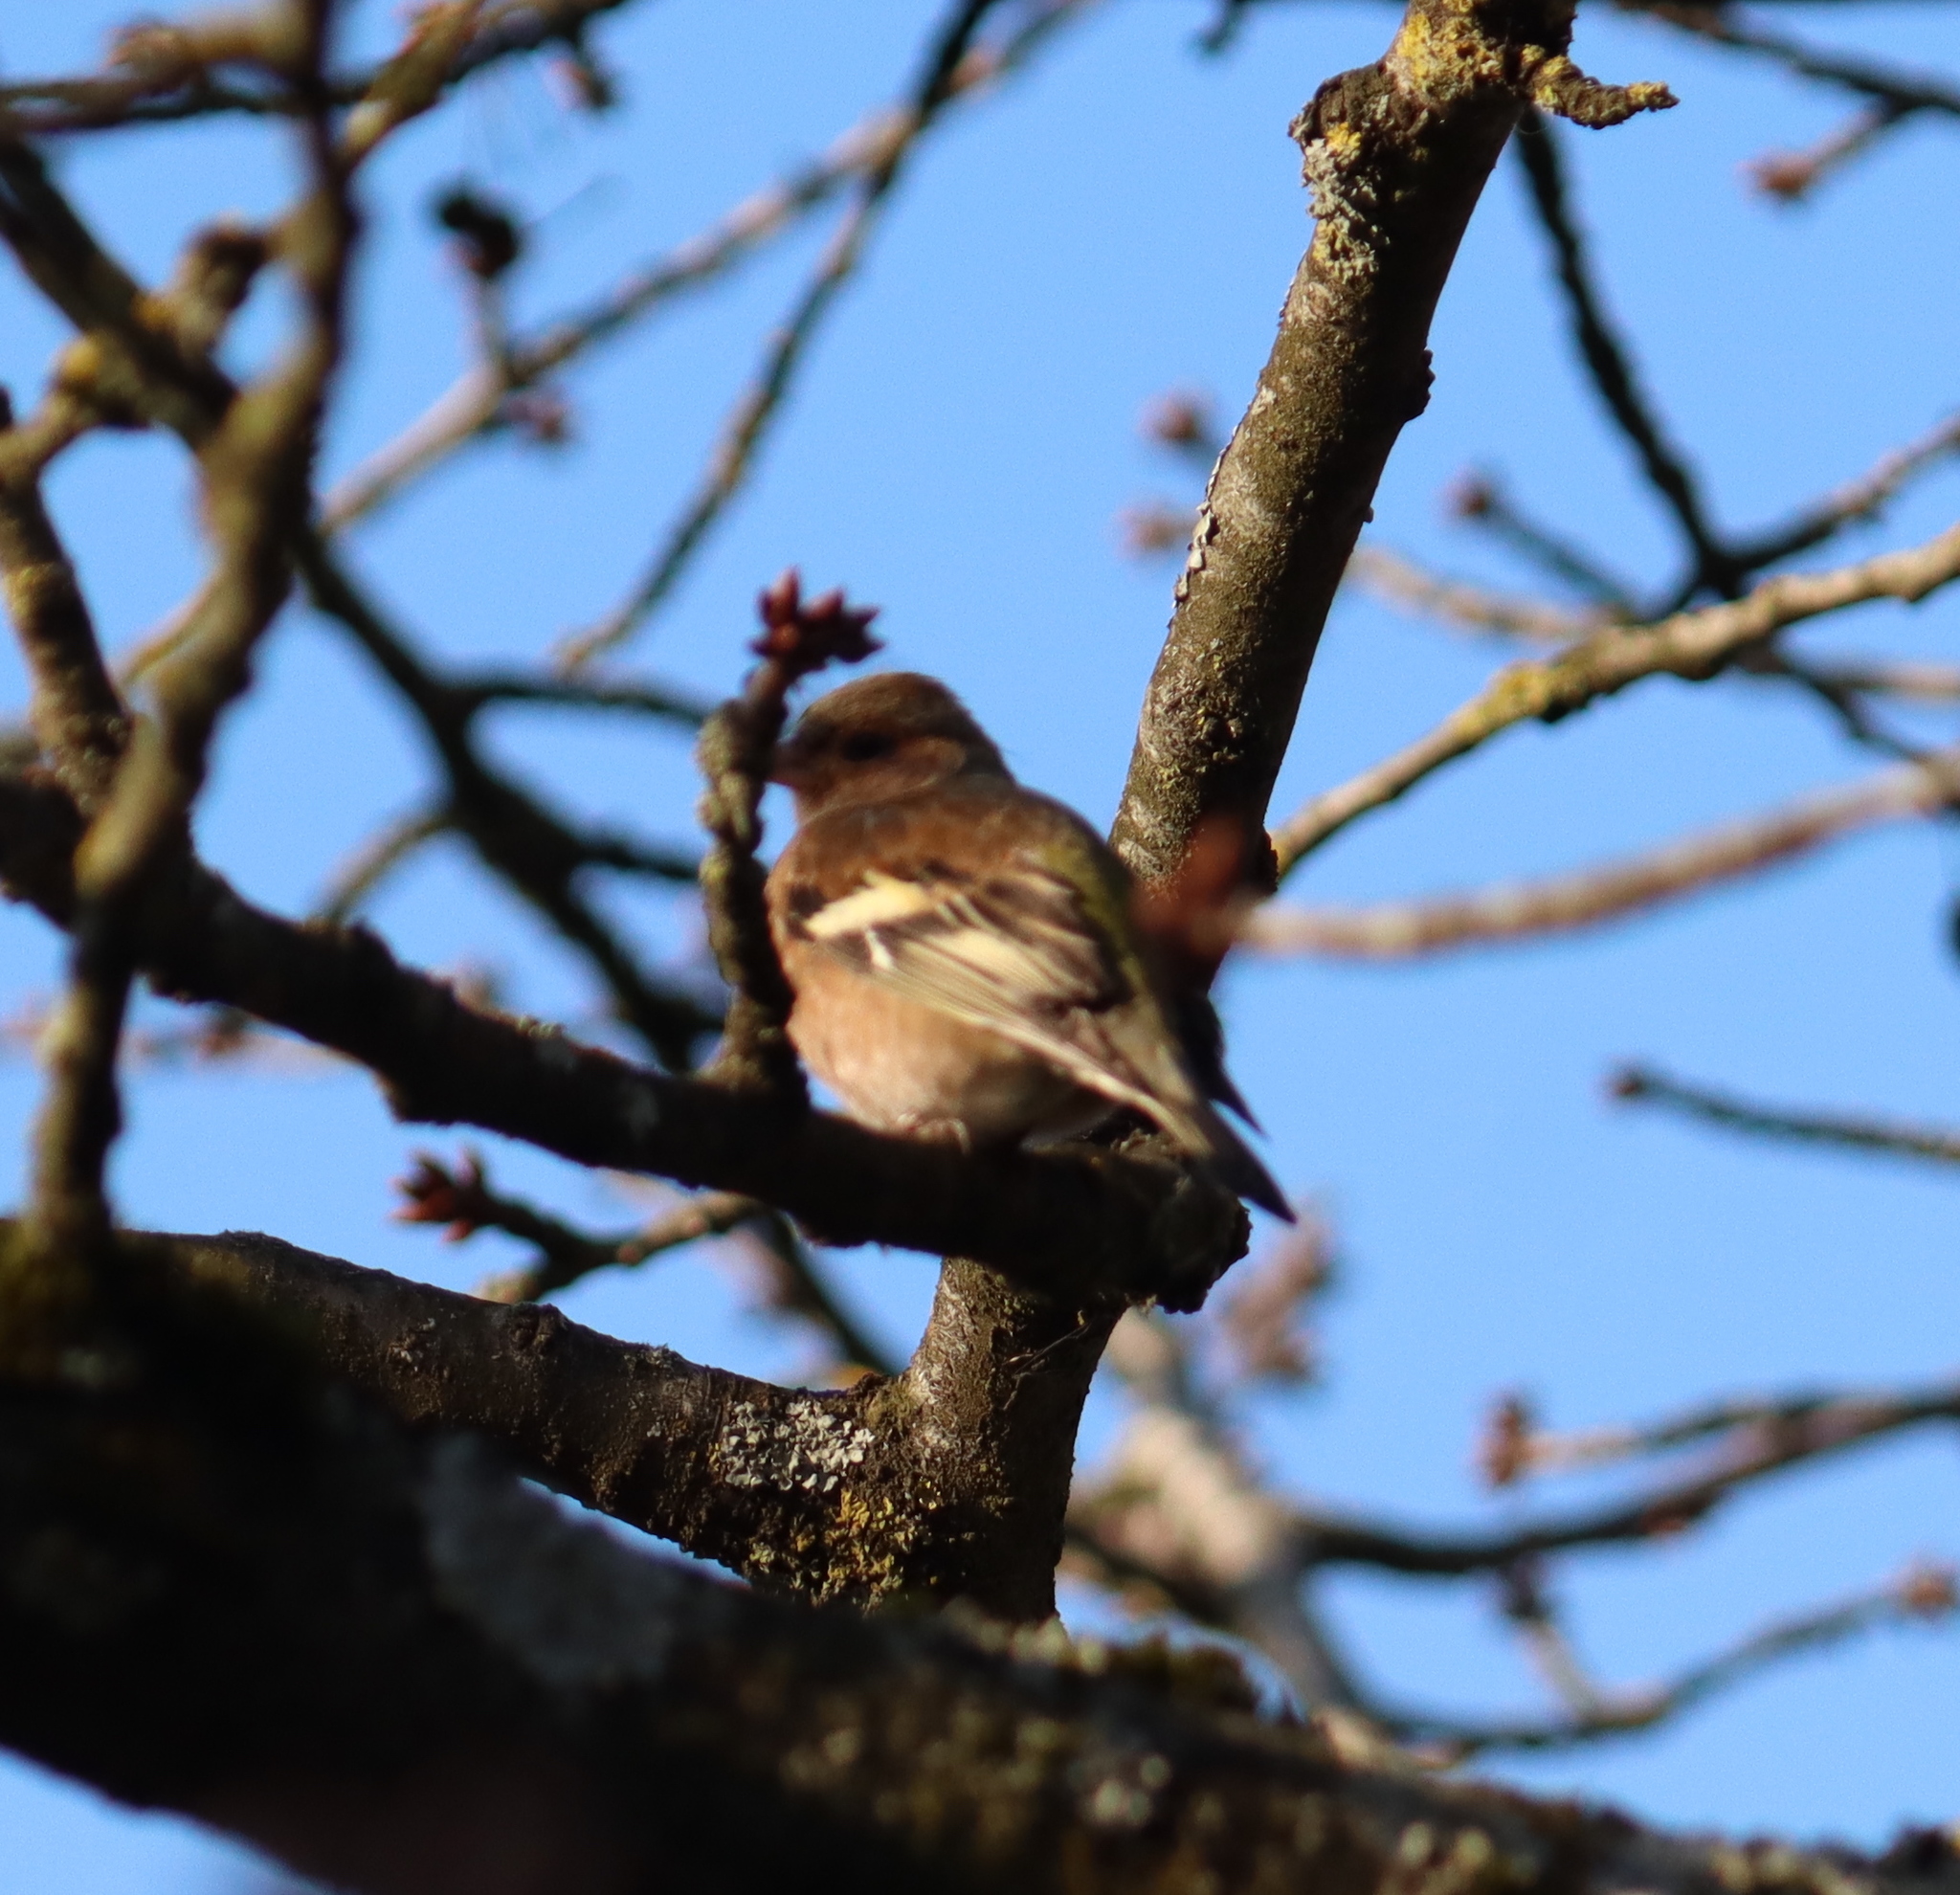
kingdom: Animalia
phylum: Chordata
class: Aves
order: Passeriformes
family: Fringillidae
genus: Fringilla
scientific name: Fringilla coelebs
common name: Common chaffinch
